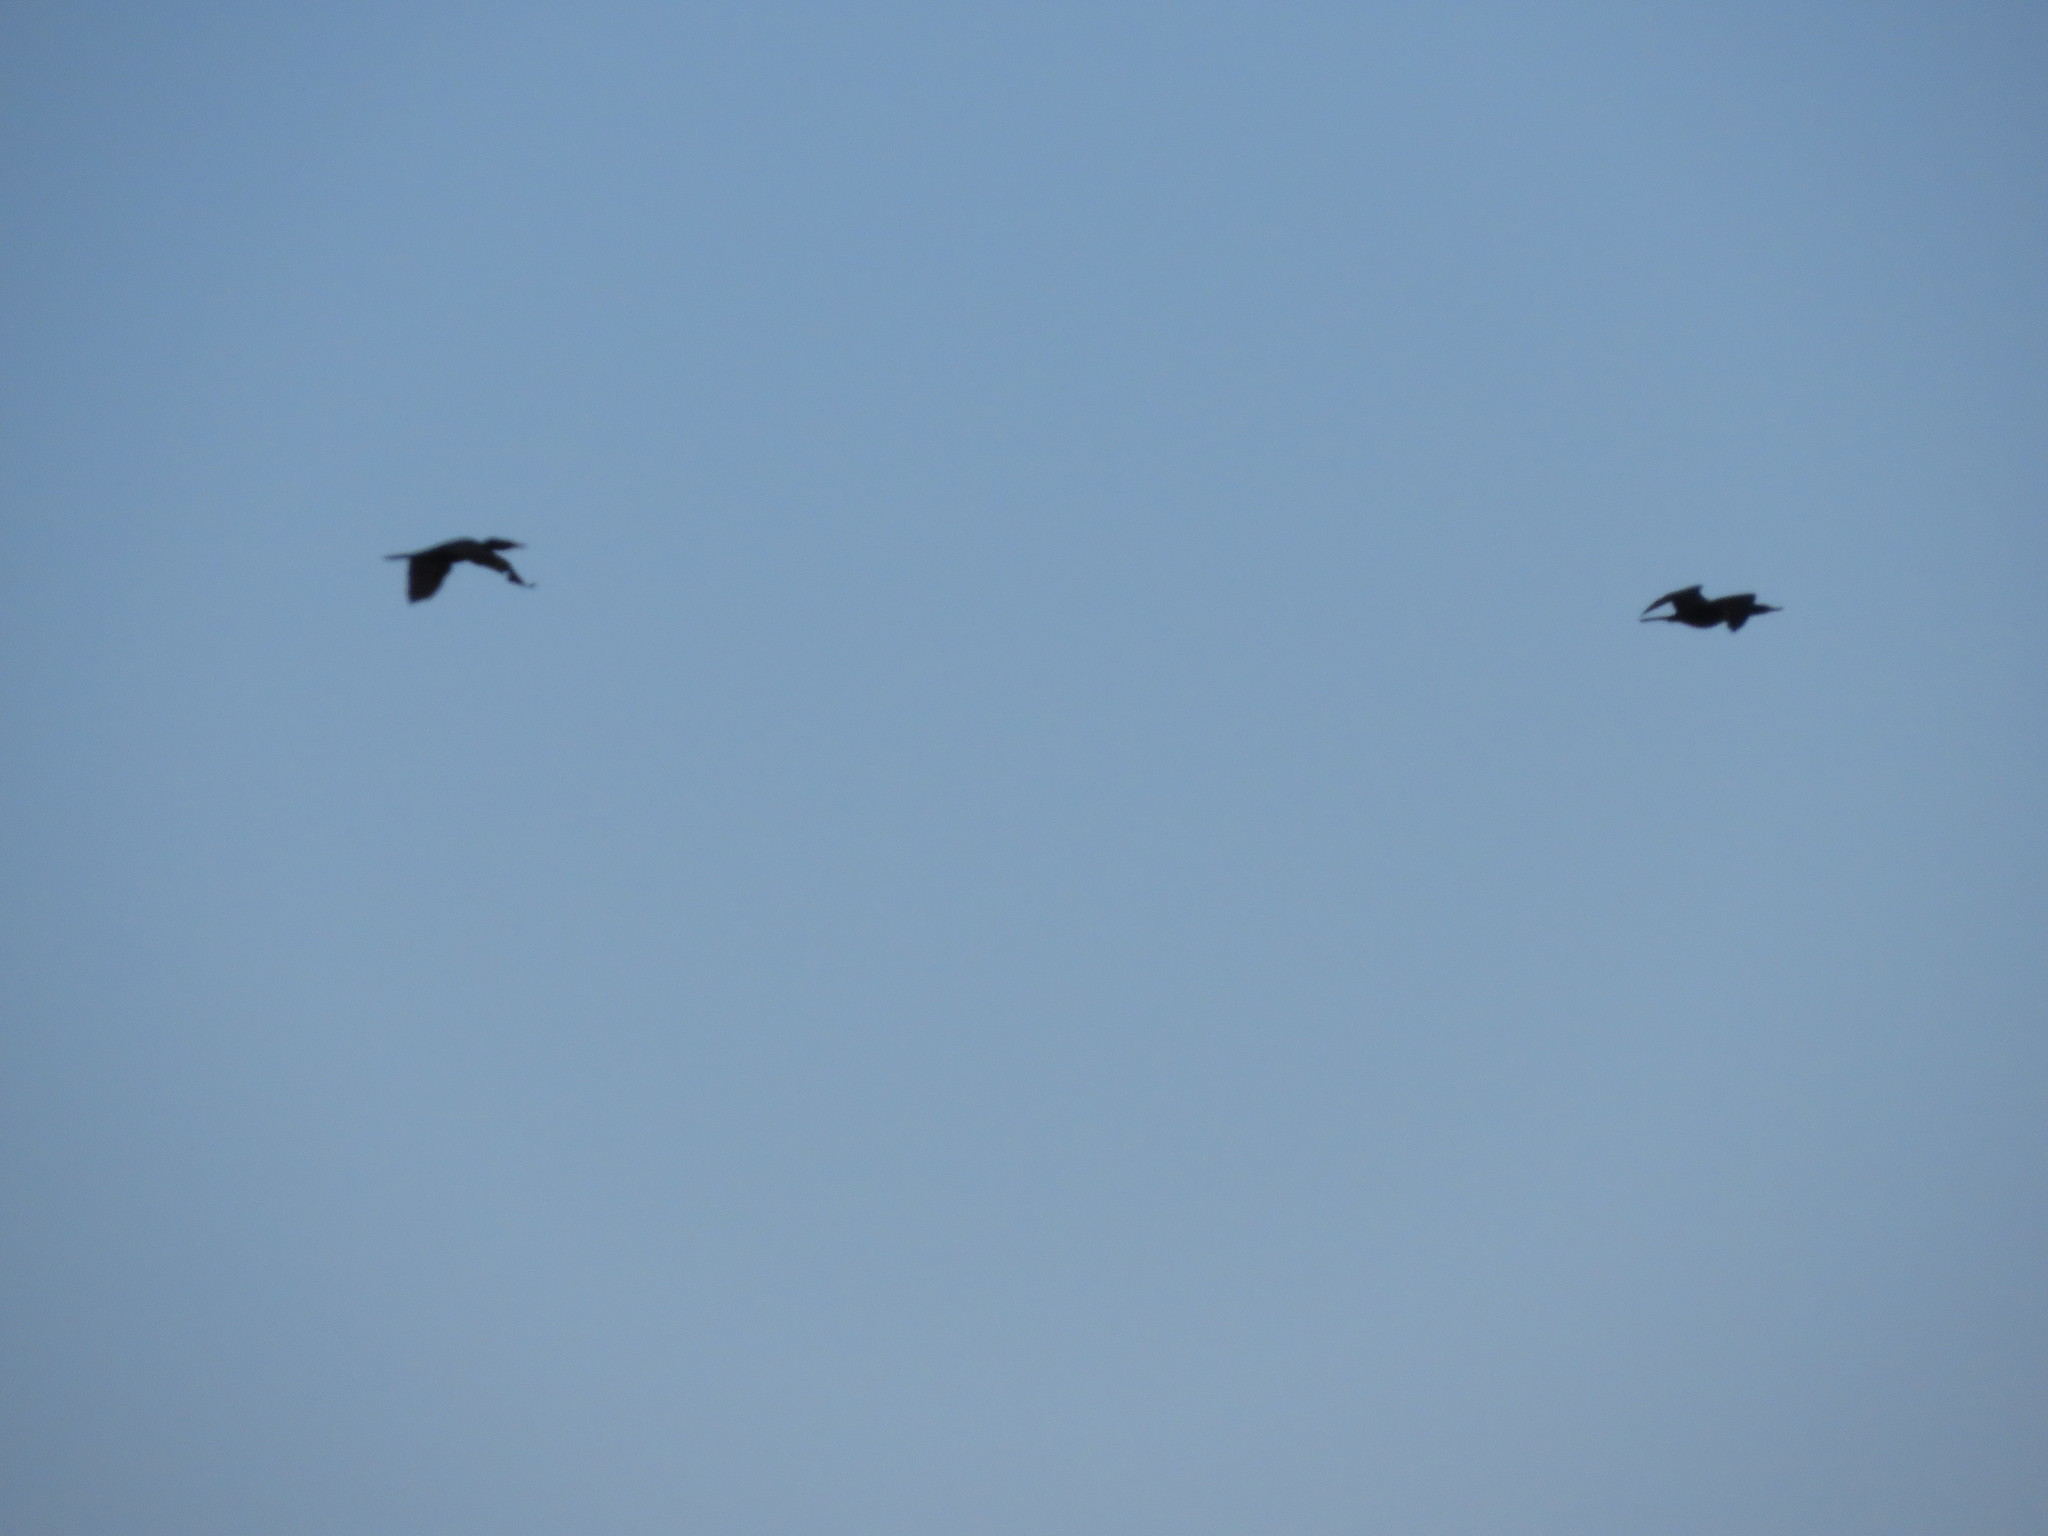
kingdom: Animalia
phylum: Chordata
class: Aves
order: Suliformes
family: Phalacrocoracidae
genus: Phalacrocorax
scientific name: Phalacrocorax brasilianus
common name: Neotropic cormorant
